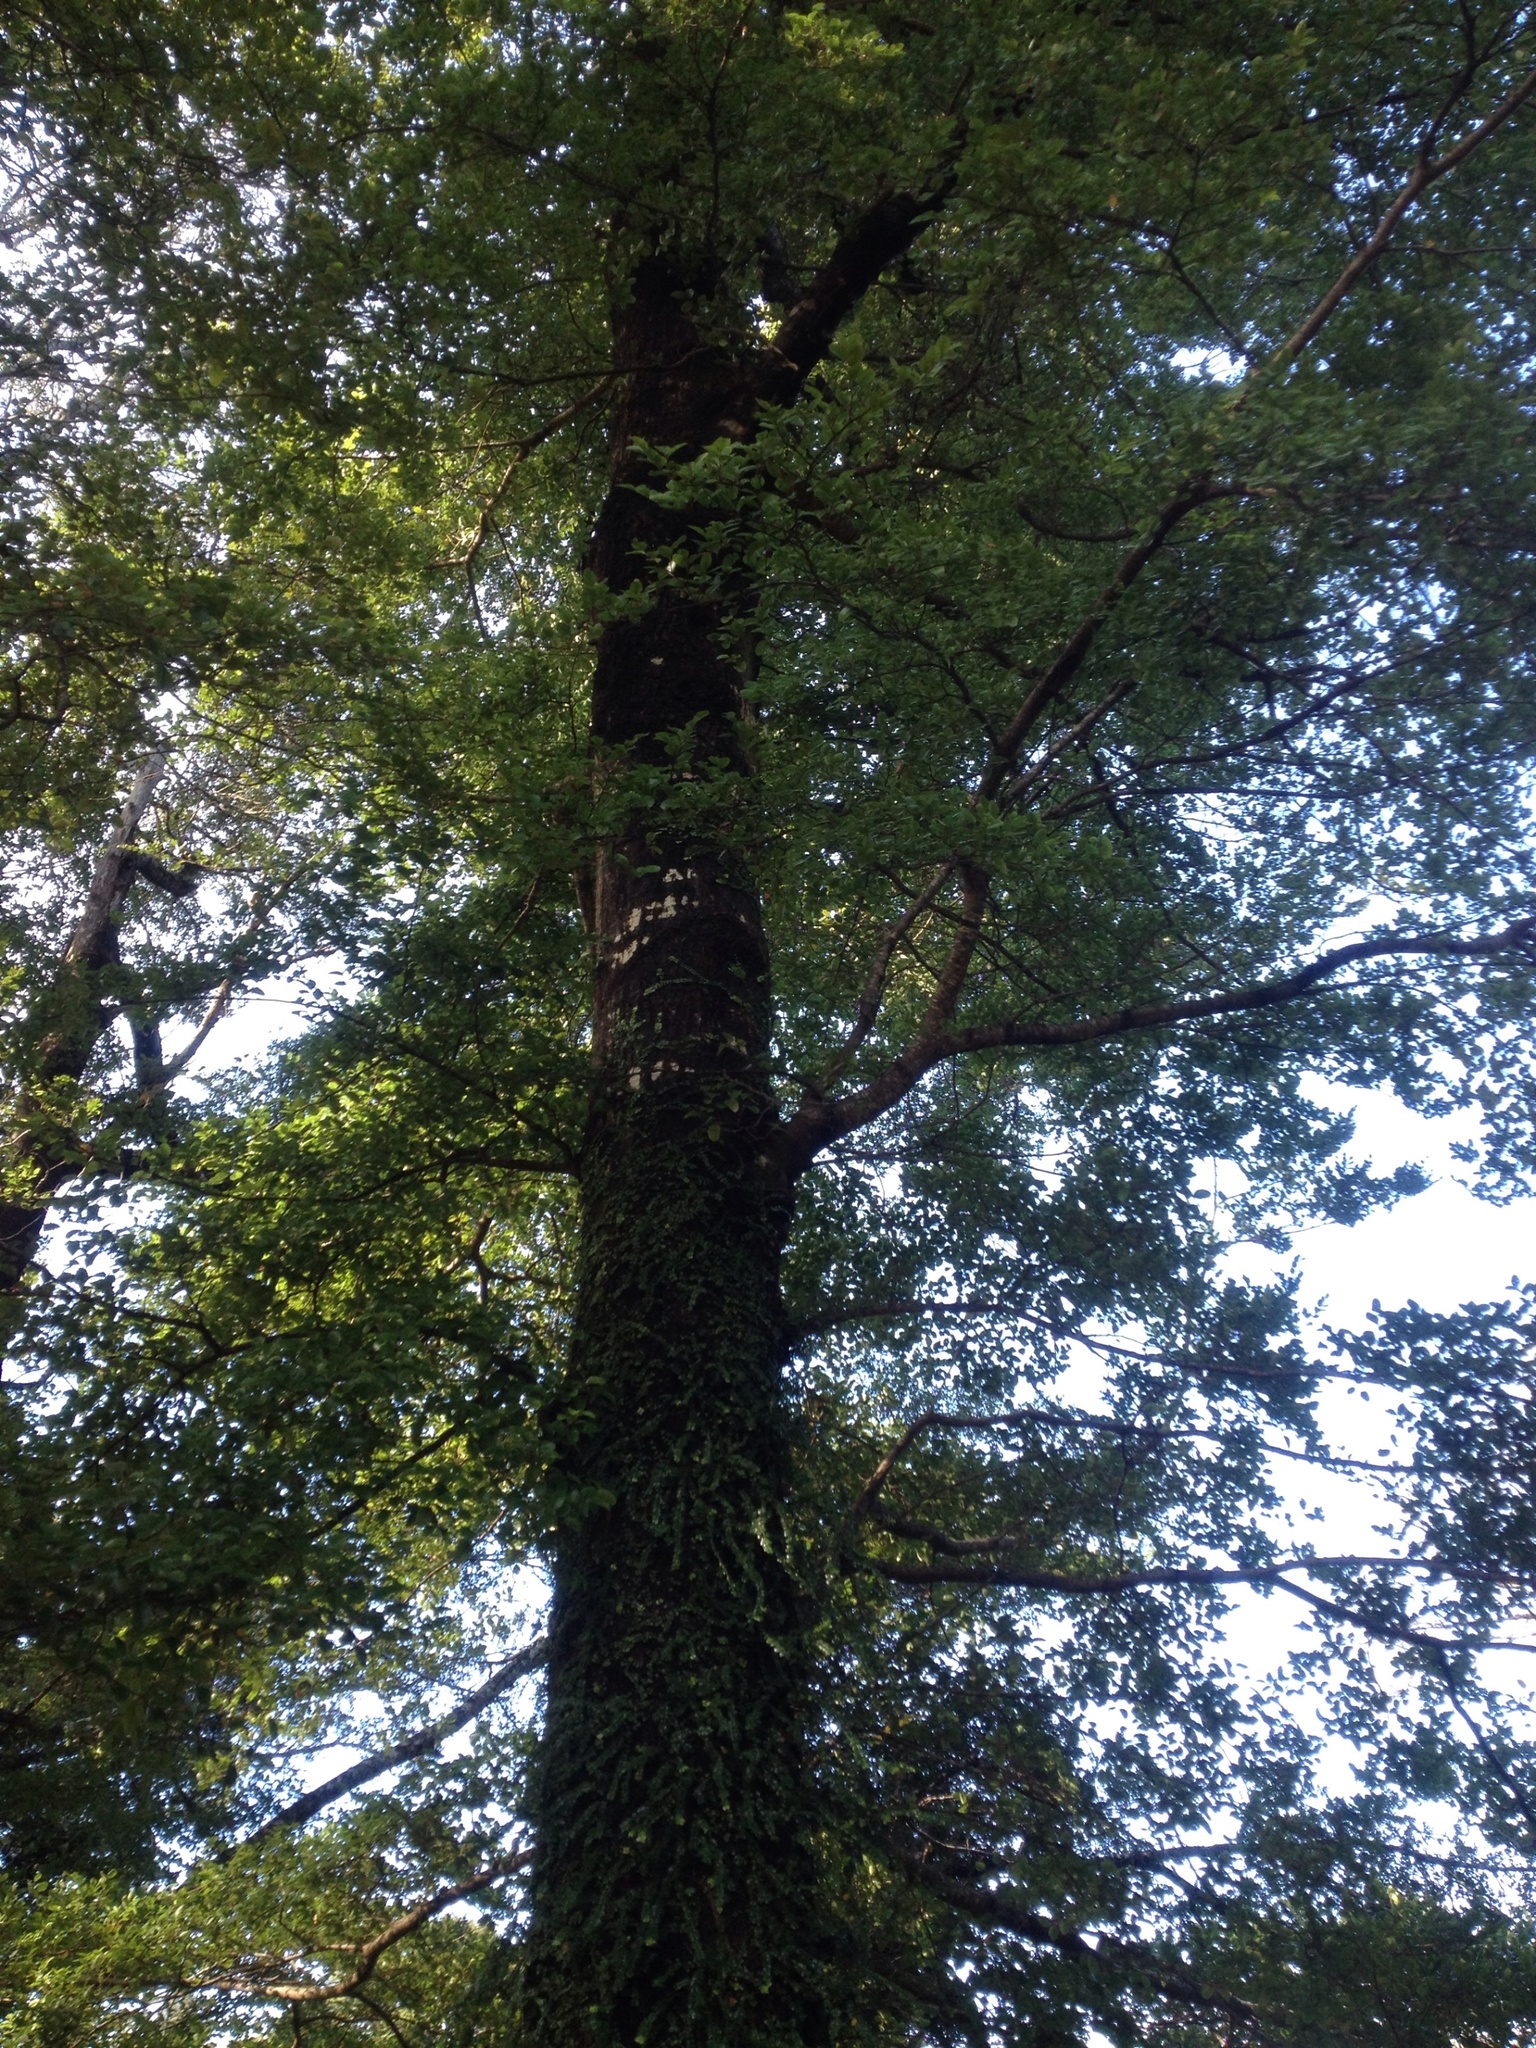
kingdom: Plantae
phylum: Tracheophyta
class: Magnoliopsida
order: Fagales
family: Nothofagaceae
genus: Nothofagus
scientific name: Nothofagus truncata
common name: Hard beech
